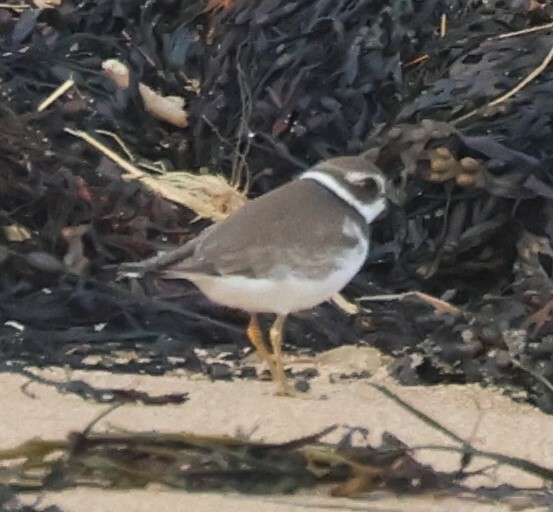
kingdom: Animalia
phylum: Chordata
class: Aves
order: Charadriiformes
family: Charadriidae
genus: Charadrius
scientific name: Charadrius semipalmatus
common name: Semipalmated plover
